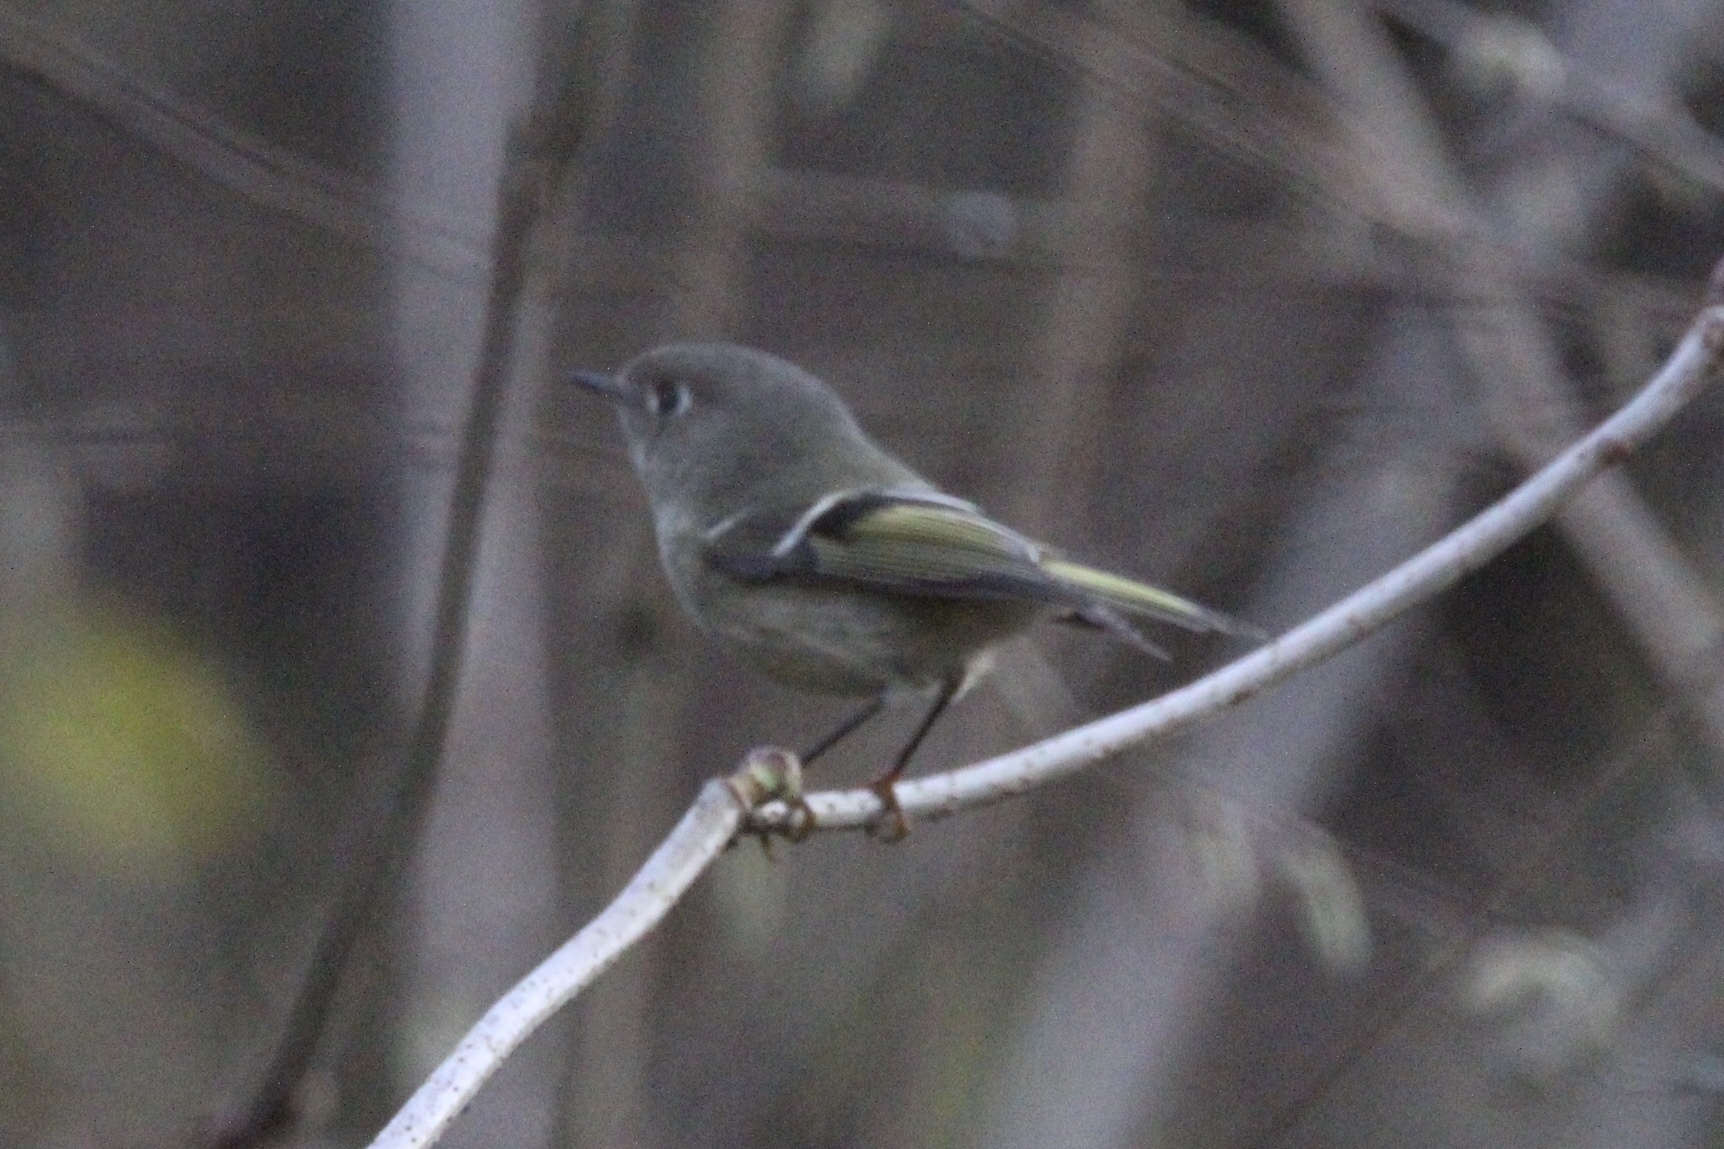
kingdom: Animalia
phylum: Chordata
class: Aves
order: Passeriformes
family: Regulidae
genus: Regulus
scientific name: Regulus calendula
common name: Ruby-crowned kinglet
